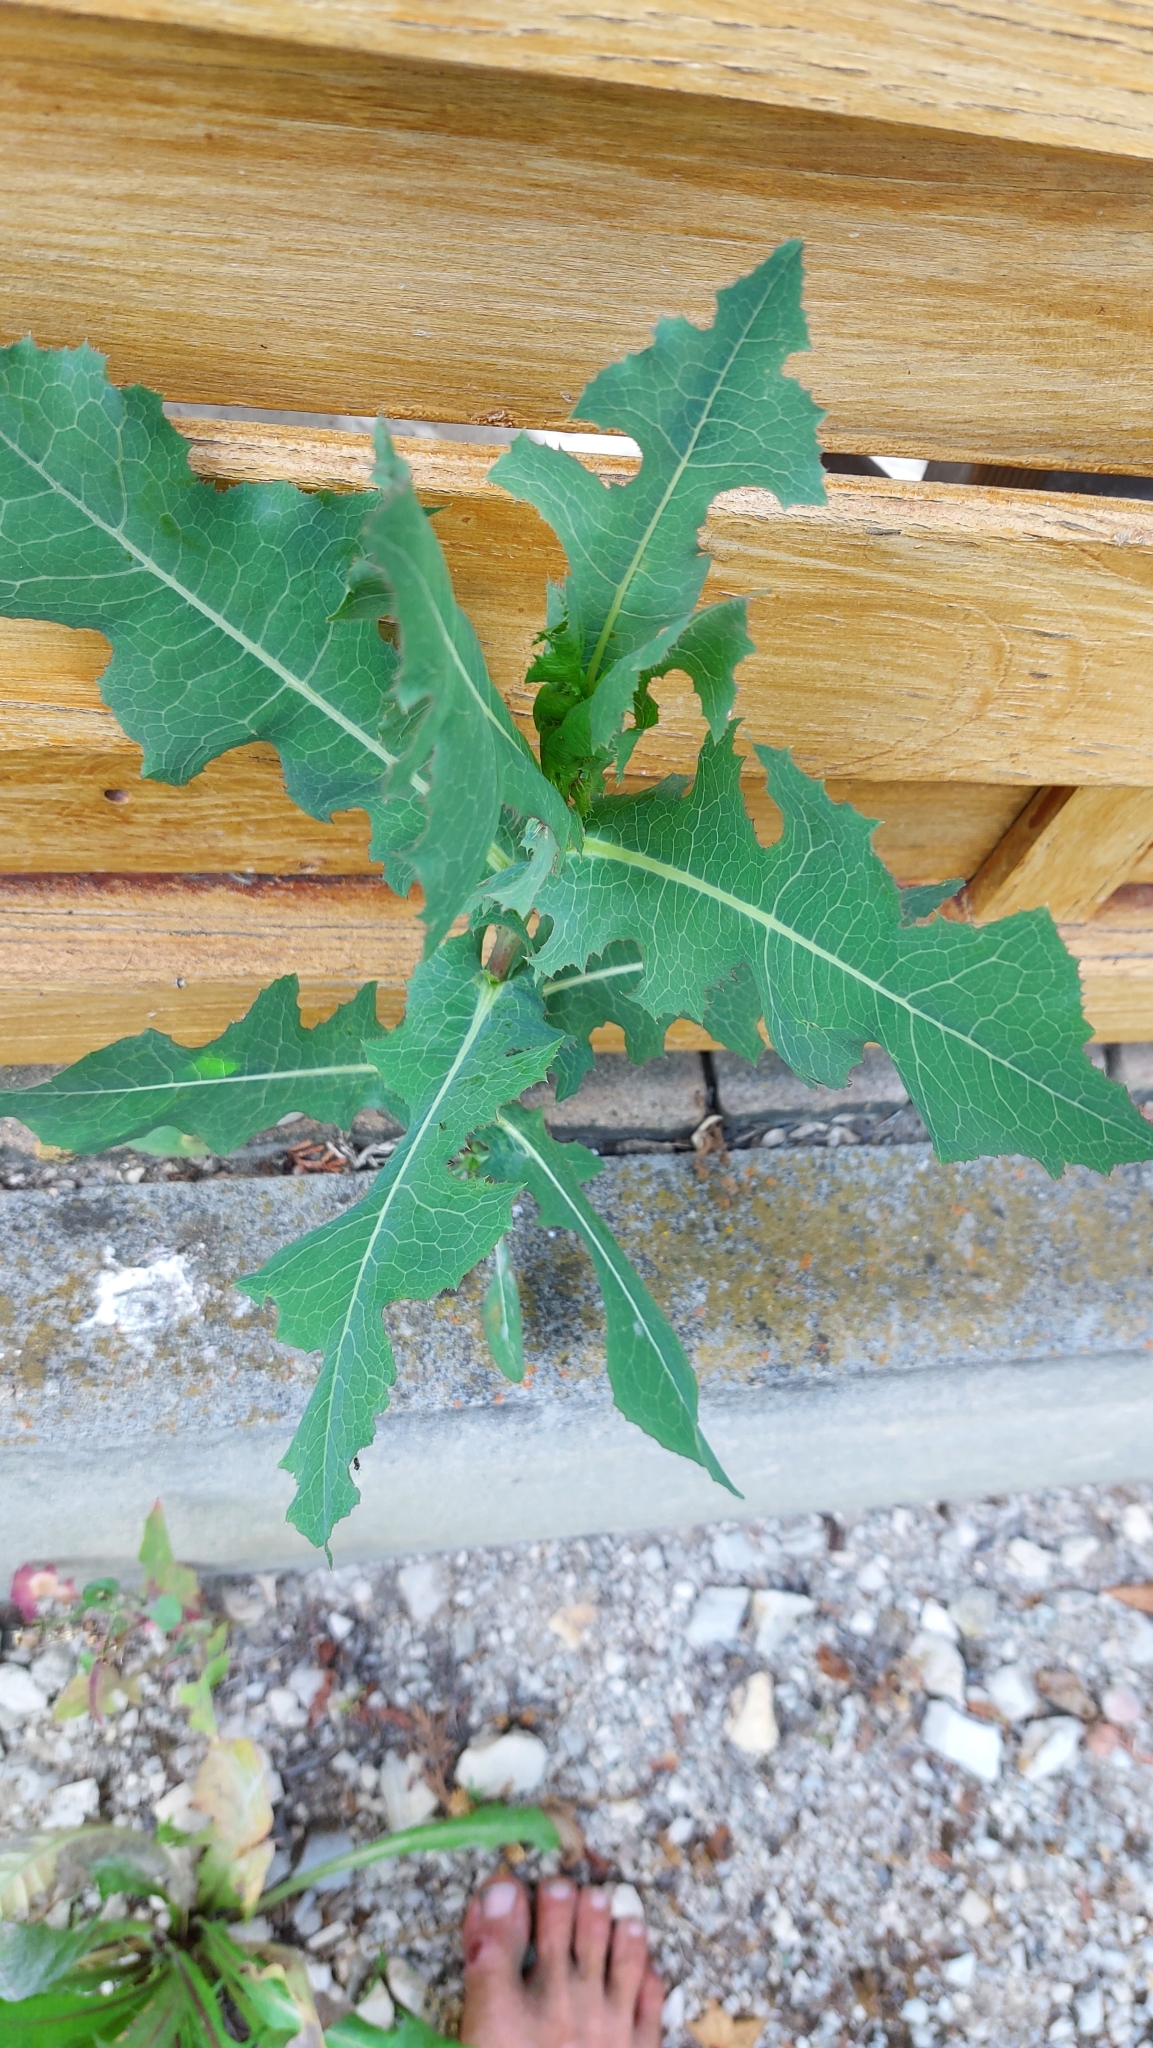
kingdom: Plantae
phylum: Tracheophyta
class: Magnoliopsida
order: Asterales
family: Asteraceae
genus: Lactuca
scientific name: Lactuca serriola
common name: Prickly lettuce
